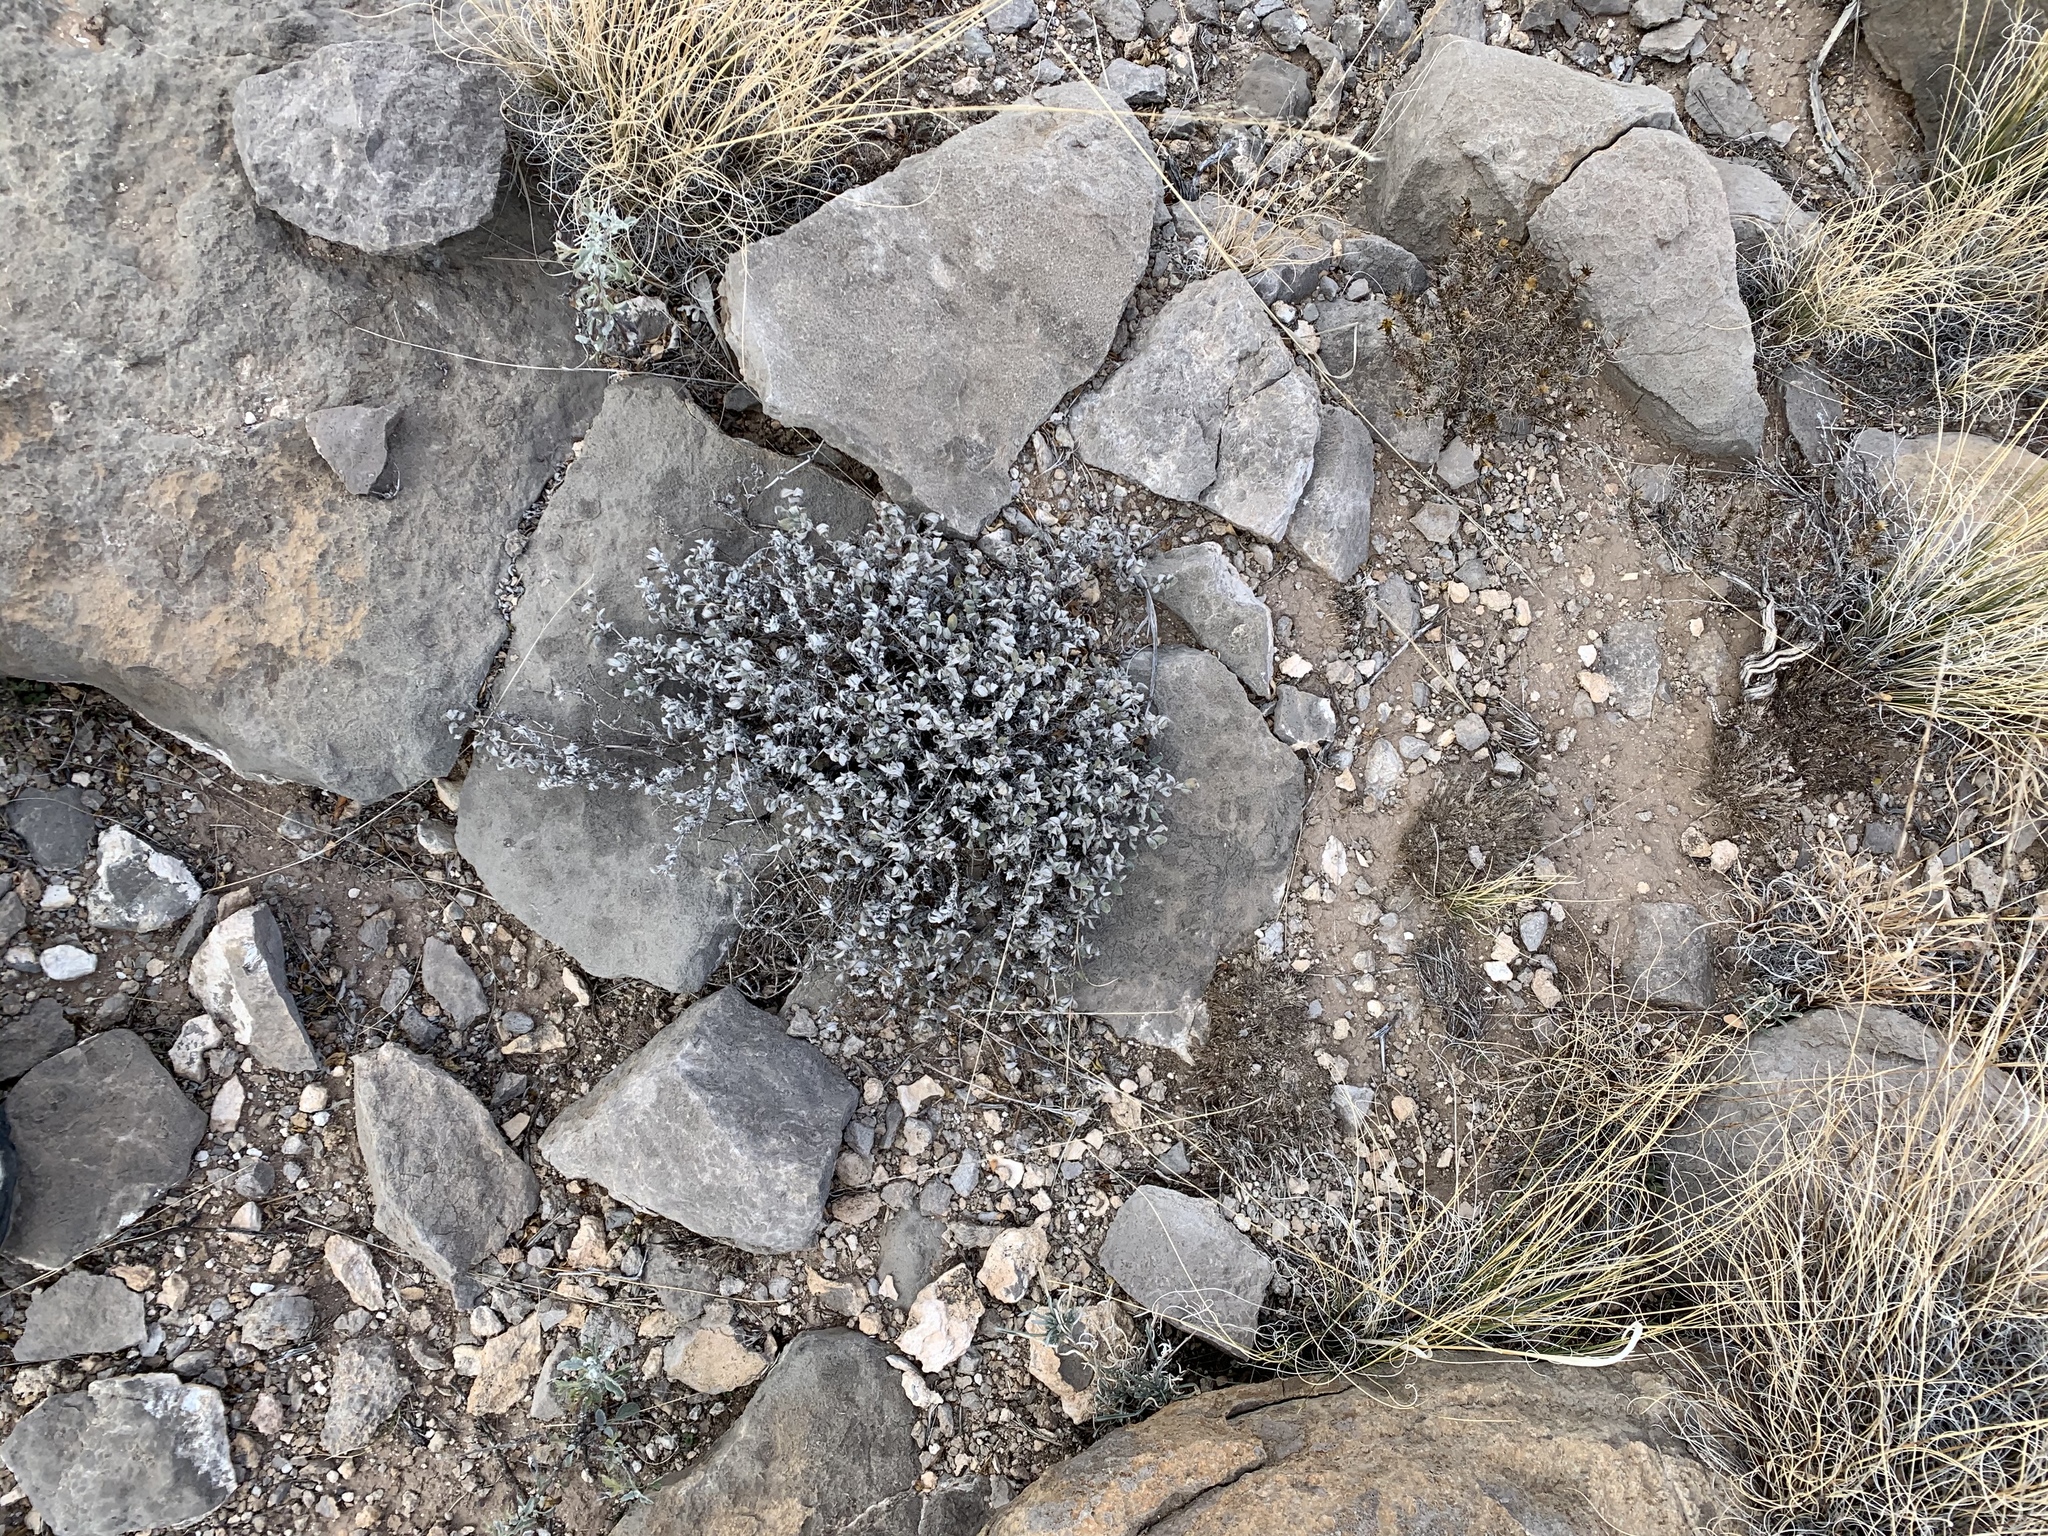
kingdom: Plantae
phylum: Tracheophyta
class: Magnoliopsida
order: Boraginales
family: Ehretiaceae
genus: Tiquilia
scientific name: Tiquilia canescens
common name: Hairy tiquilia
